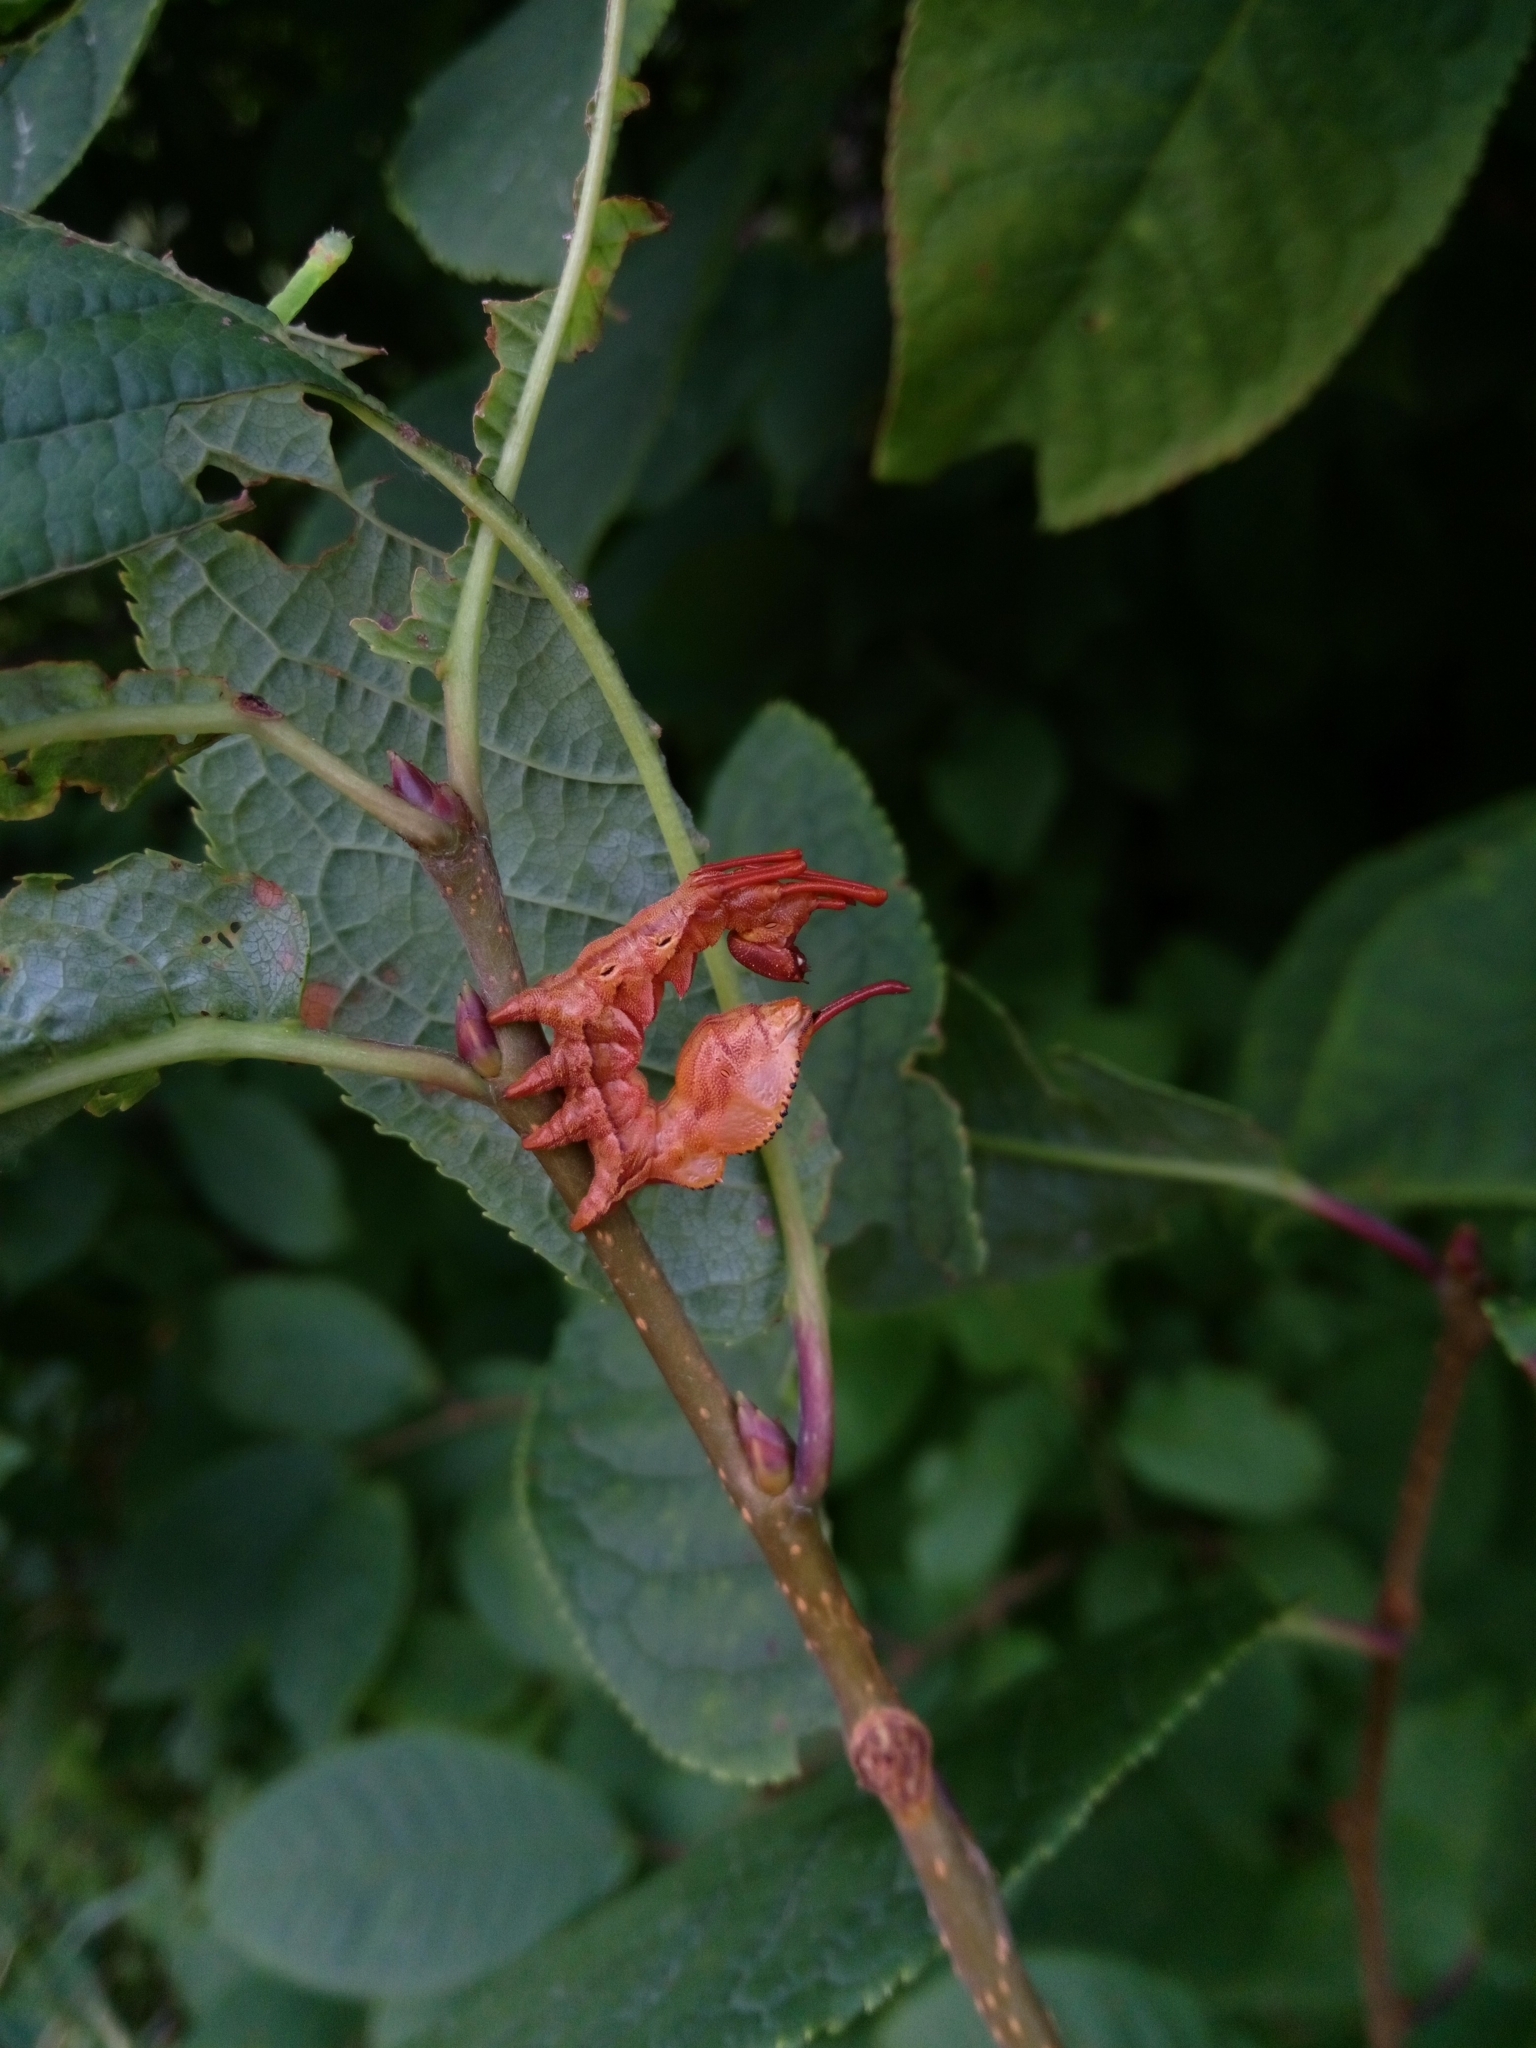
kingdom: Animalia
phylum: Arthropoda
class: Insecta
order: Lepidoptera
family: Notodontidae
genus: Stauropus
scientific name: Stauropus fagi
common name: Lobster moth
